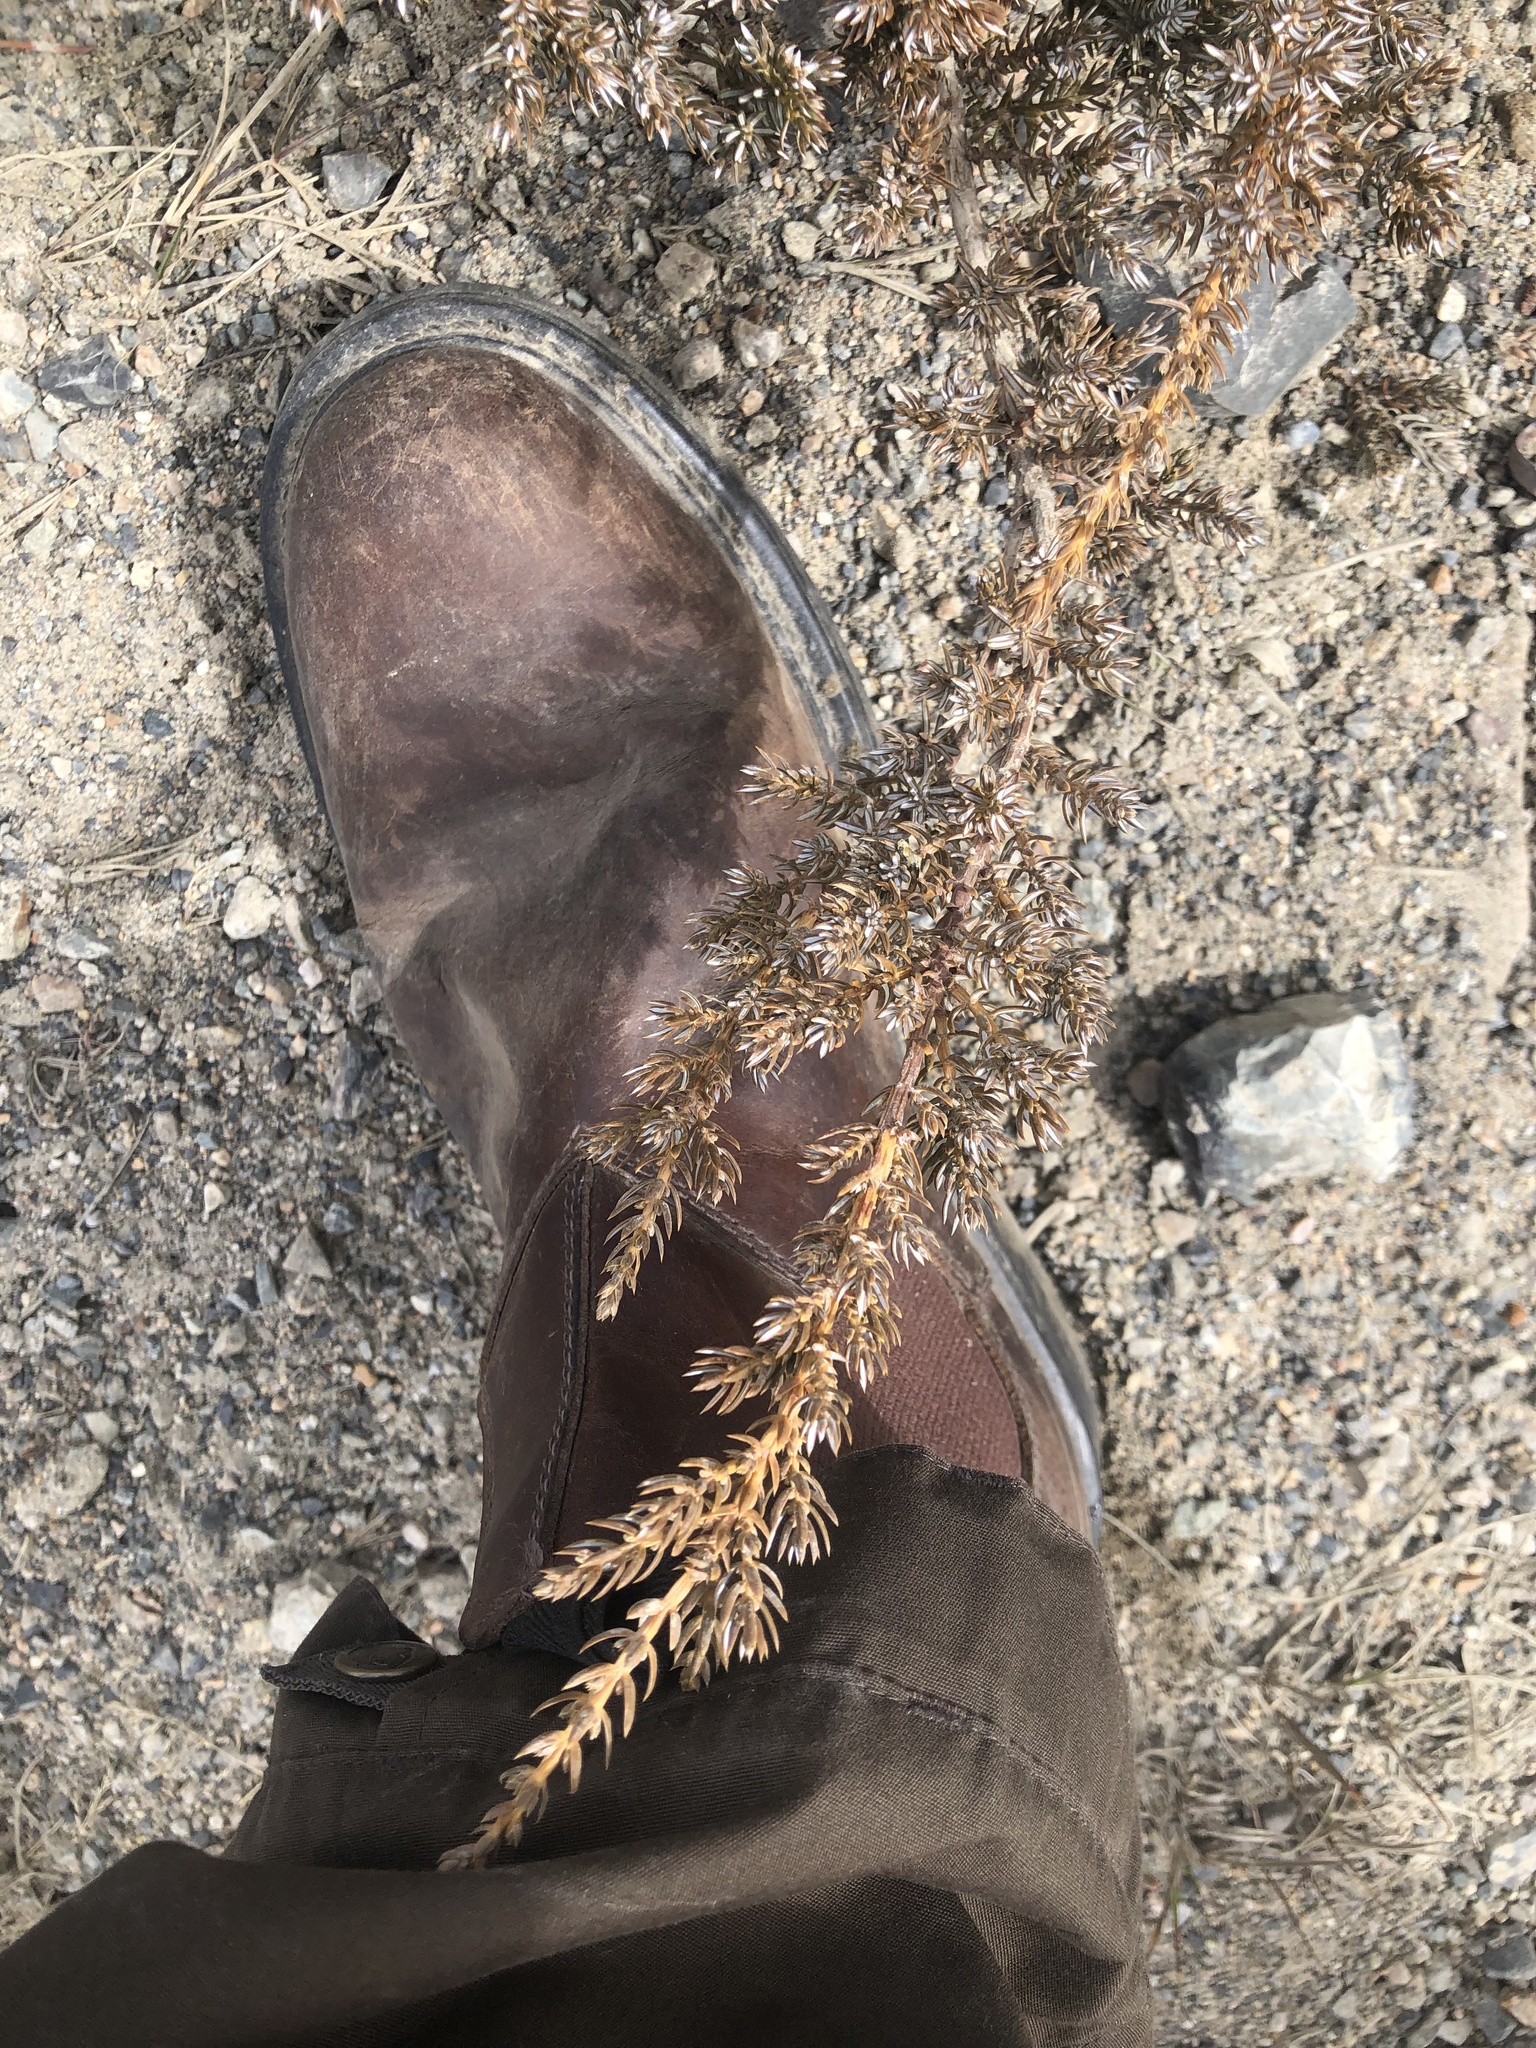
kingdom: Plantae
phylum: Tracheophyta
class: Pinopsida
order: Pinales
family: Cupressaceae
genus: Juniperus
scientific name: Juniperus communis
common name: Common juniper
